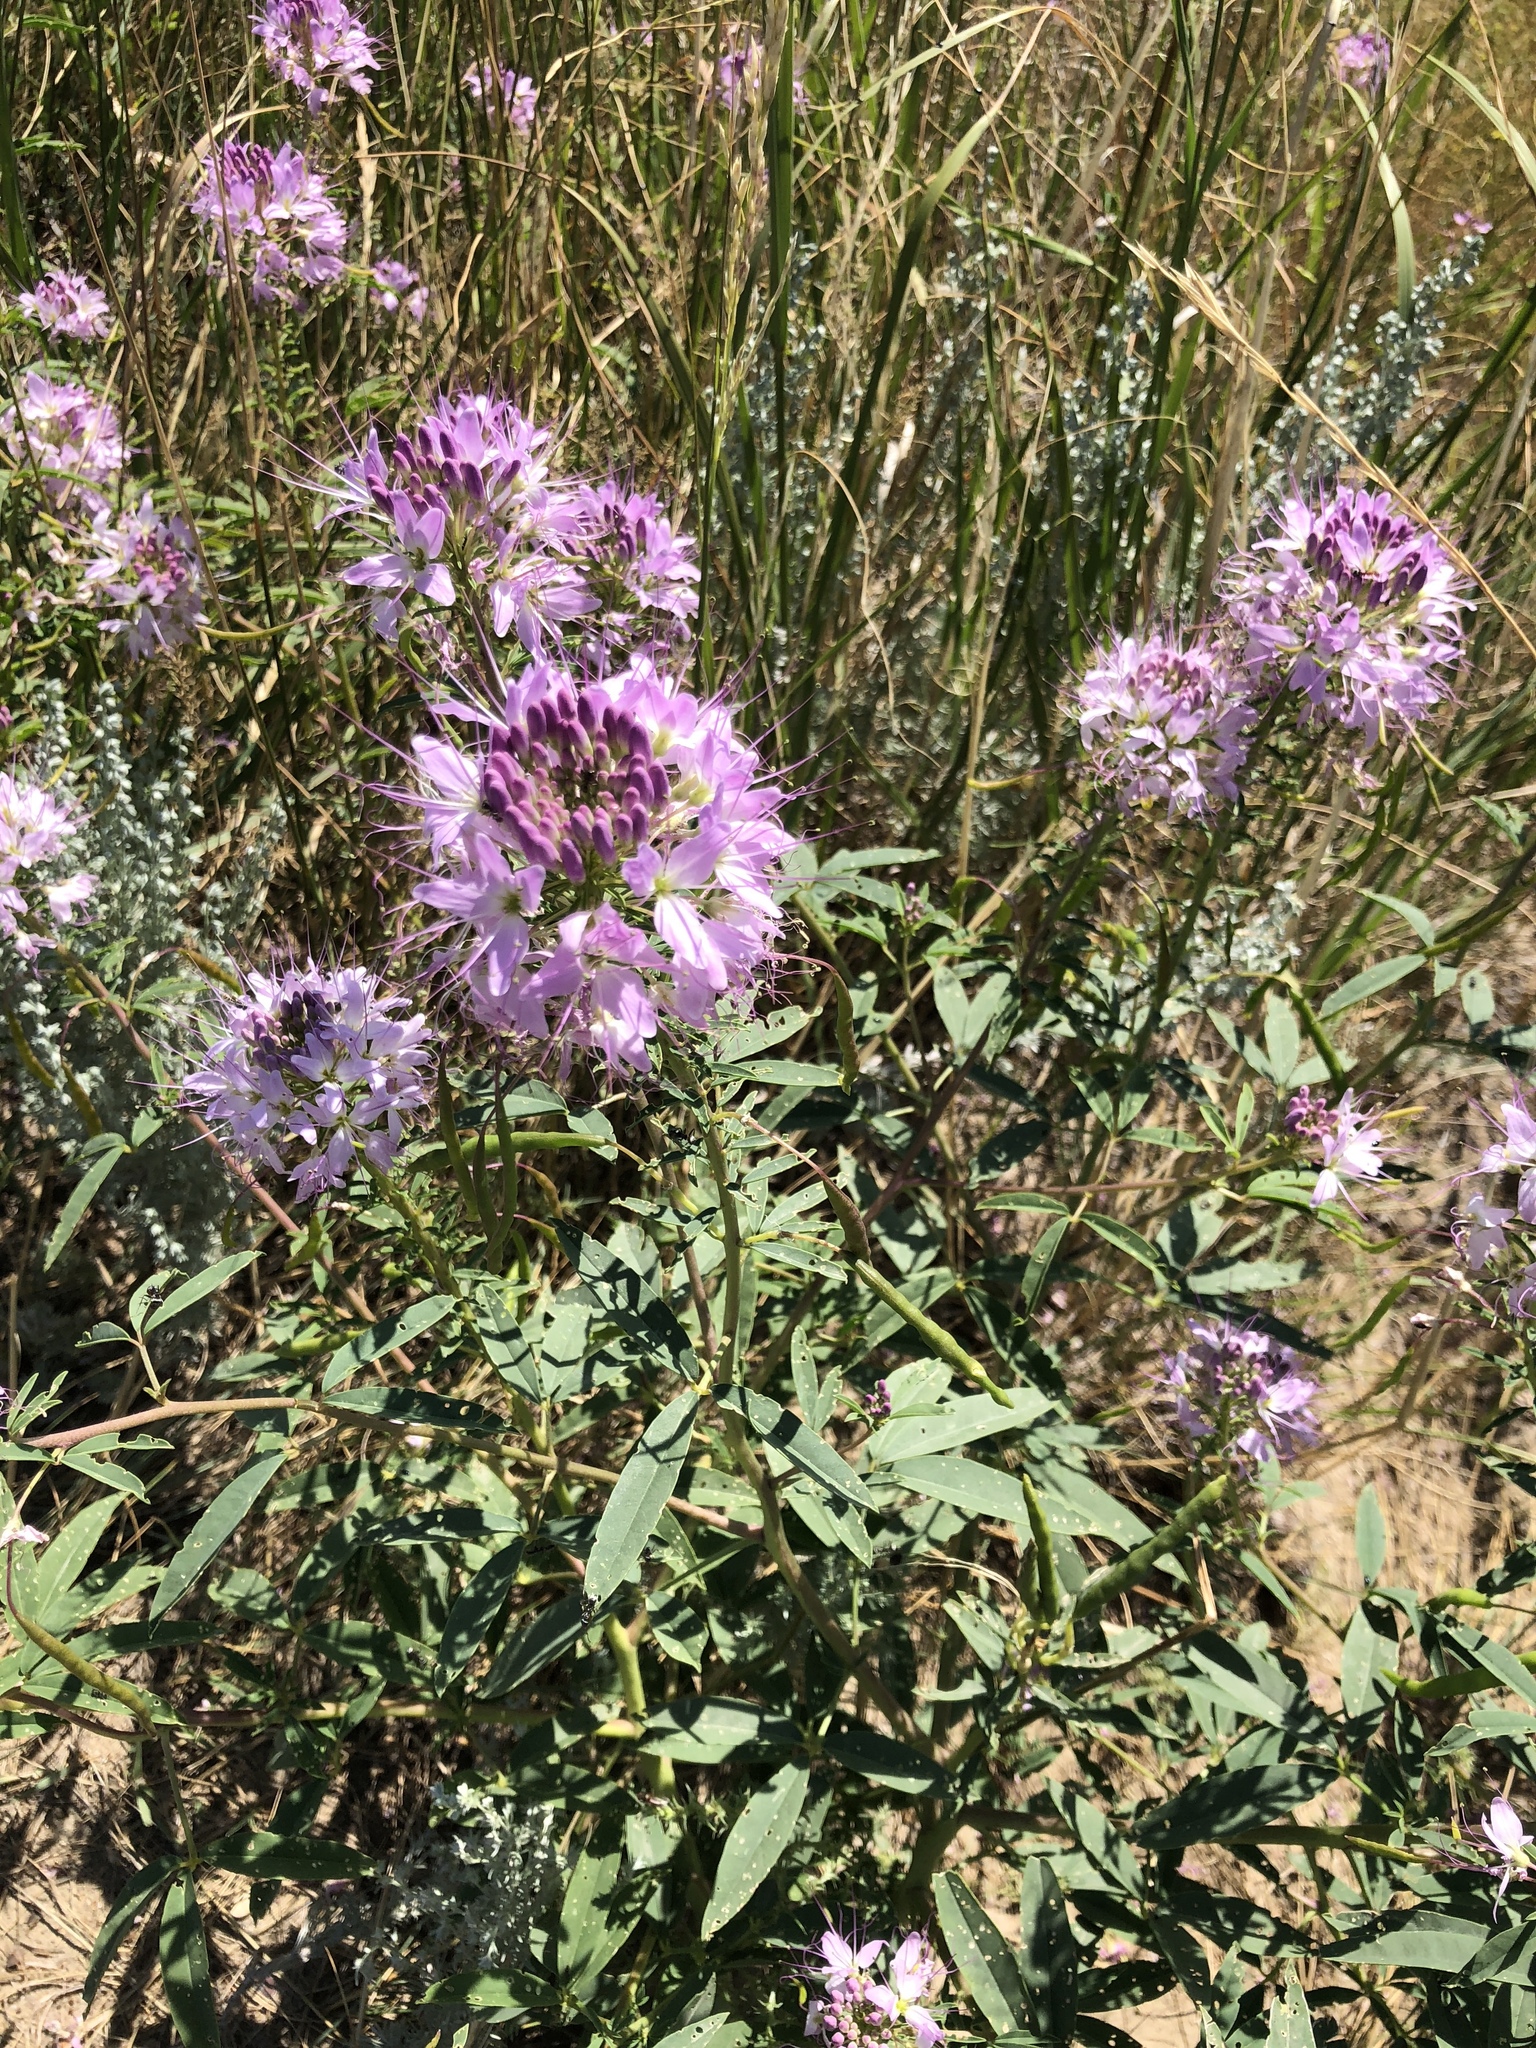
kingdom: Plantae
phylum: Tracheophyta
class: Magnoliopsida
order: Brassicales
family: Cleomaceae
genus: Cleomella
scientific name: Cleomella serrulata
